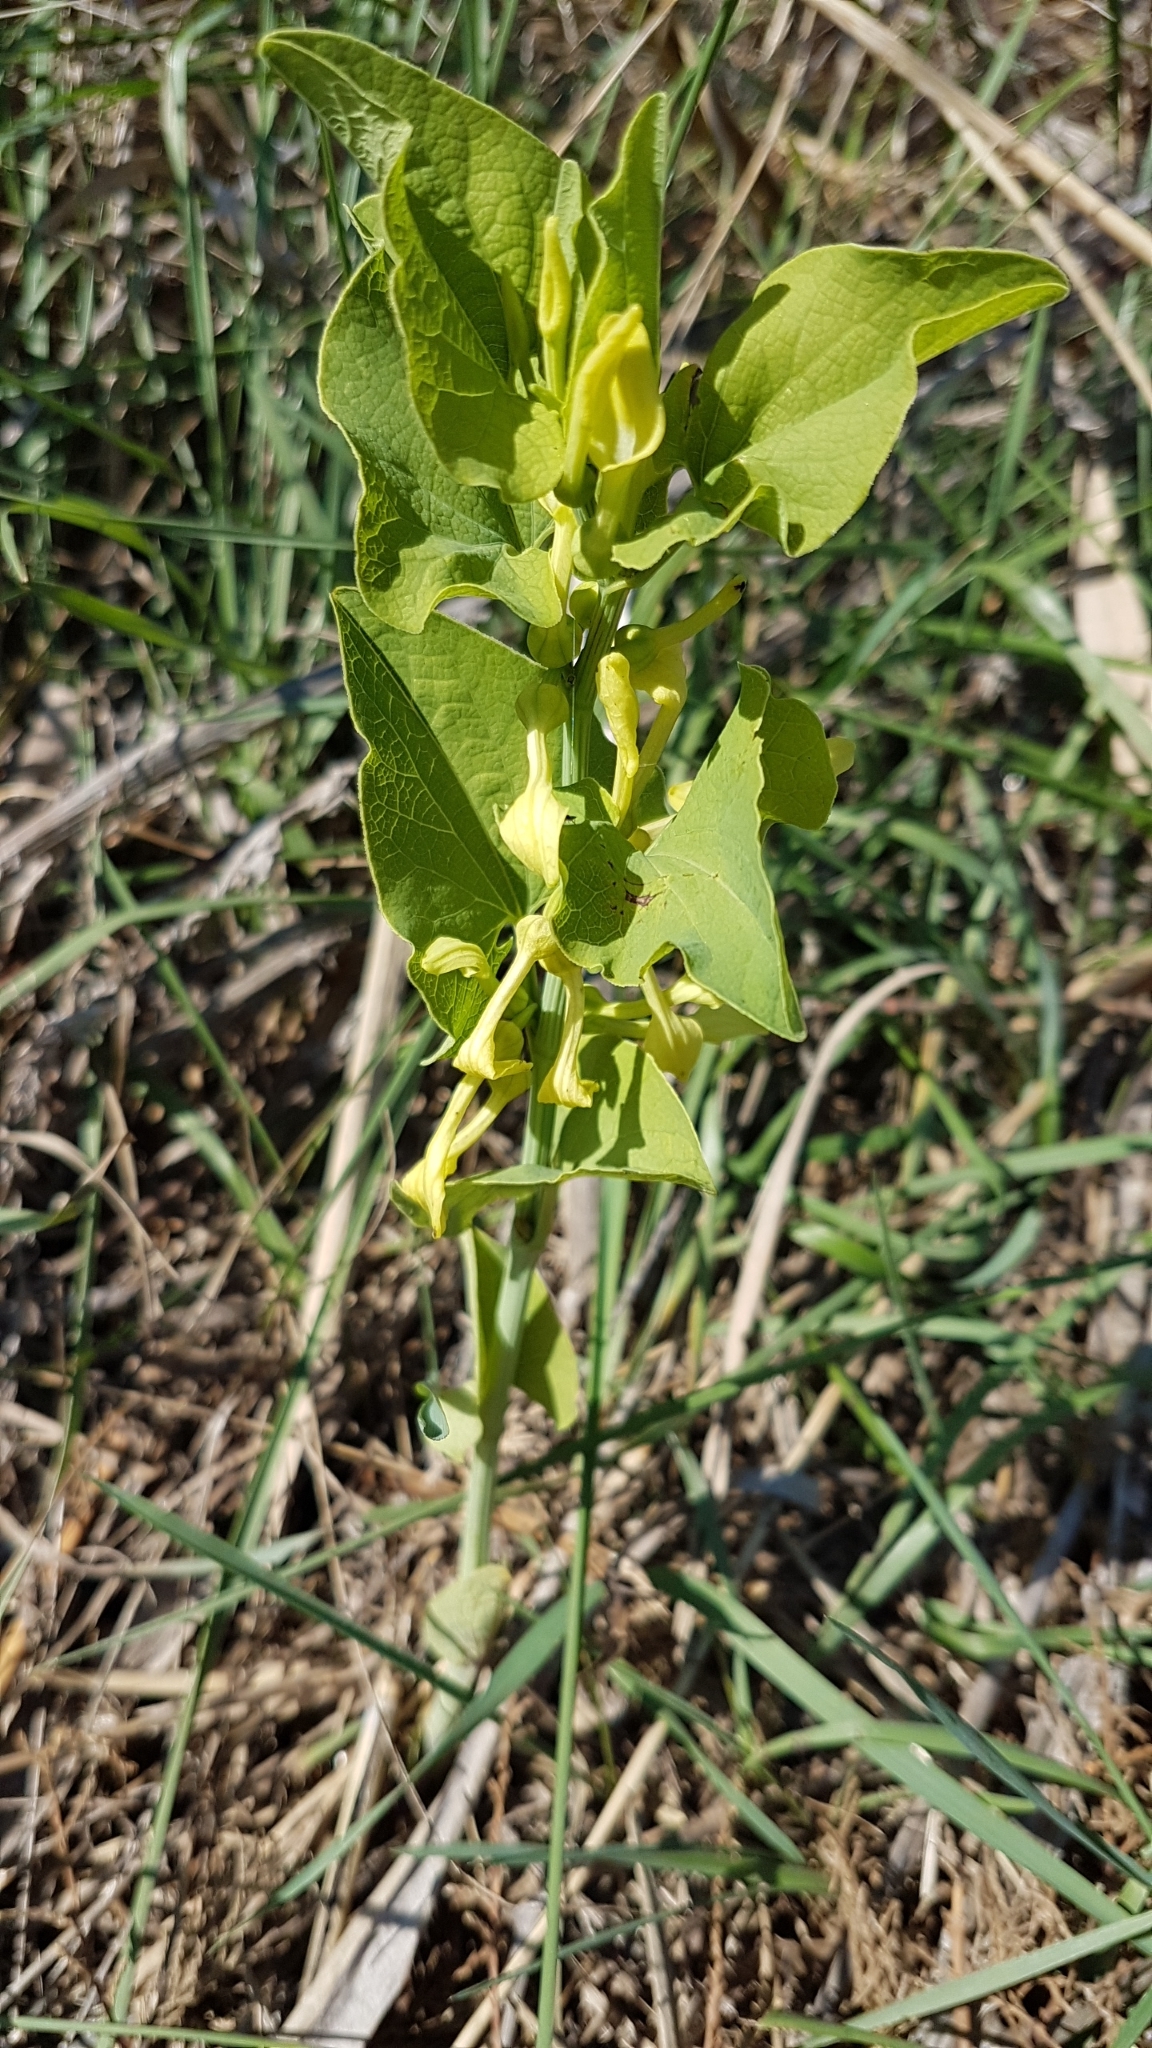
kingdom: Plantae
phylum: Tracheophyta
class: Magnoliopsida
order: Piperales
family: Aristolochiaceae
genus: Aristolochia
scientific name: Aristolochia clematitis
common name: Birthwort
